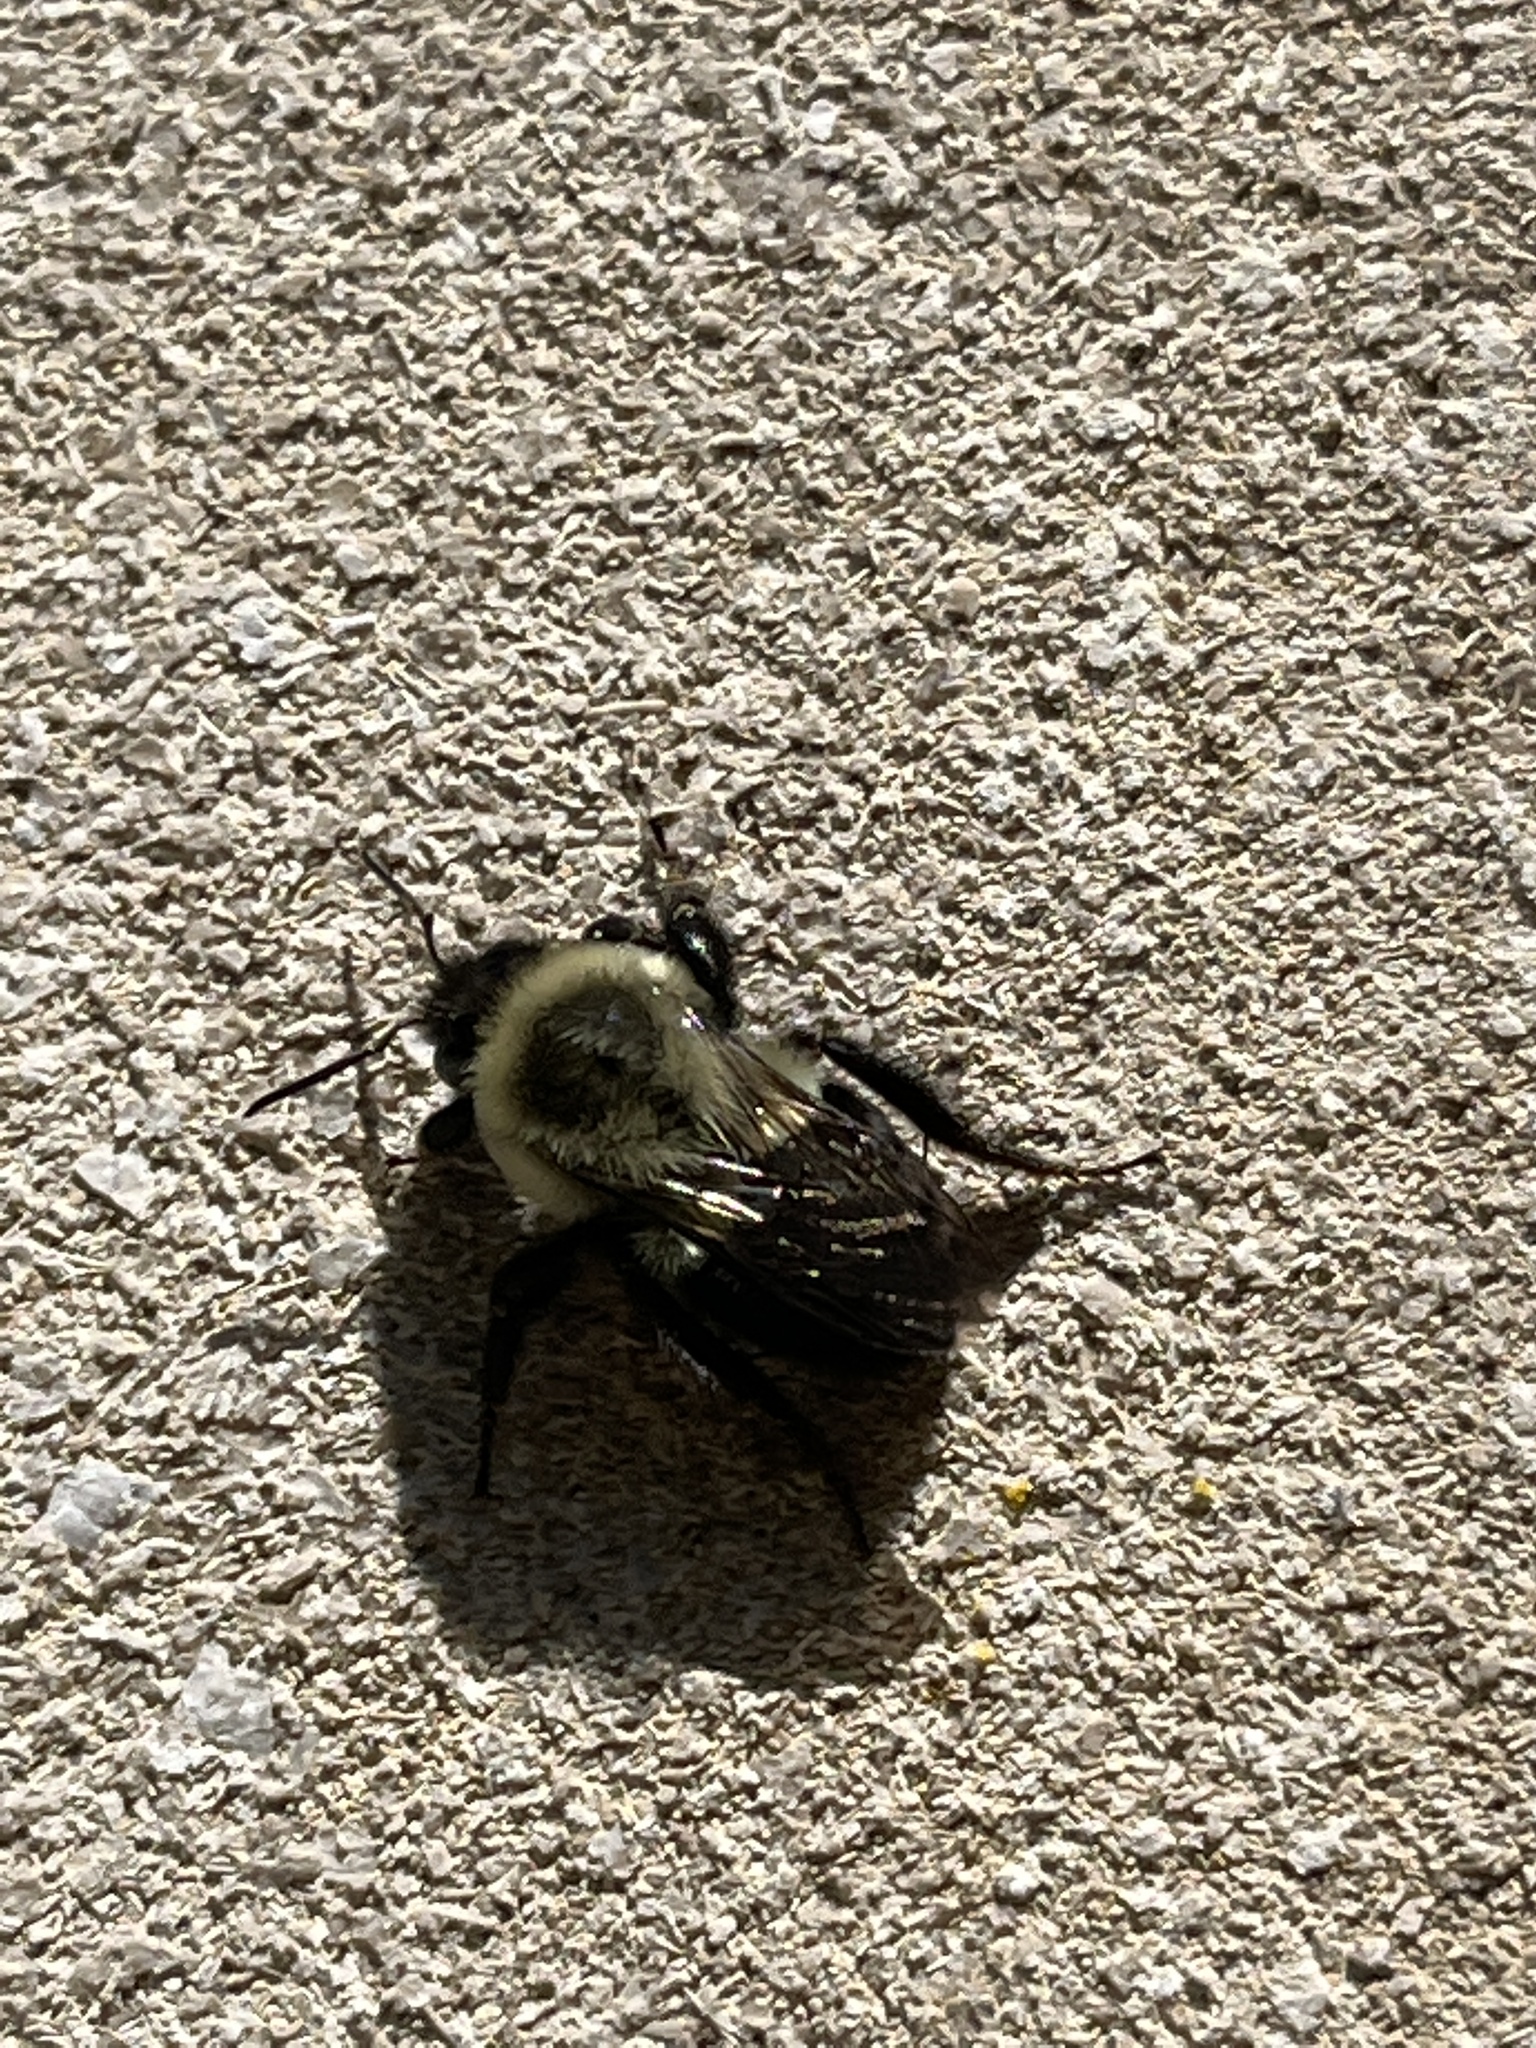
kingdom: Animalia
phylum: Arthropoda
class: Insecta
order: Hymenoptera
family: Apidae
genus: Bombus
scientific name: Bombus impatiens
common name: Common eastern bumble bee
